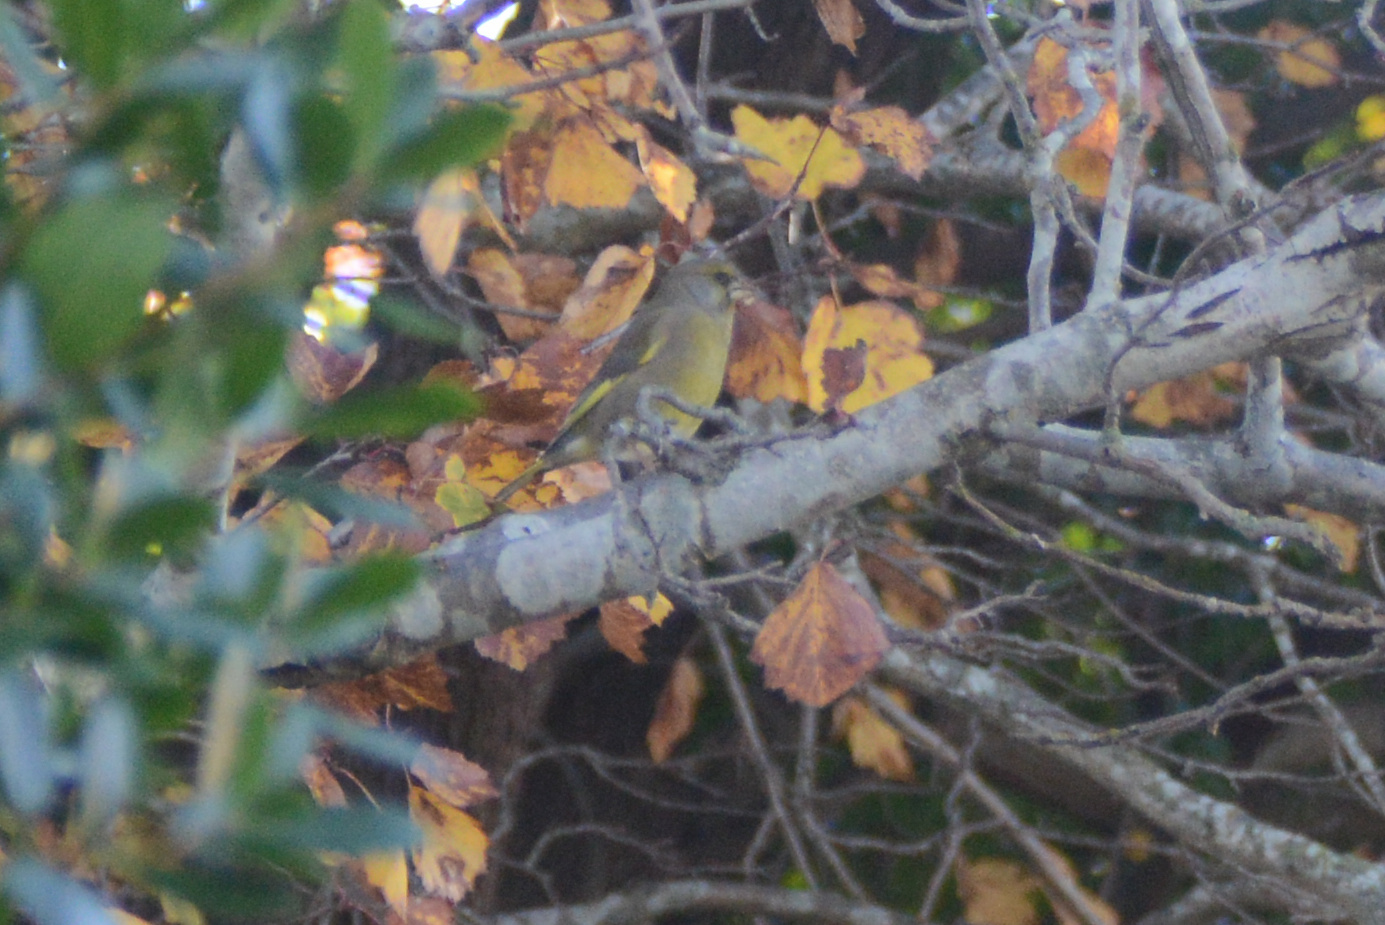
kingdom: Plantae
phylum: Tracheophyta
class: Liliopsida
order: Poales
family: Poaceae
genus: Chloris
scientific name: Chloris chloris
